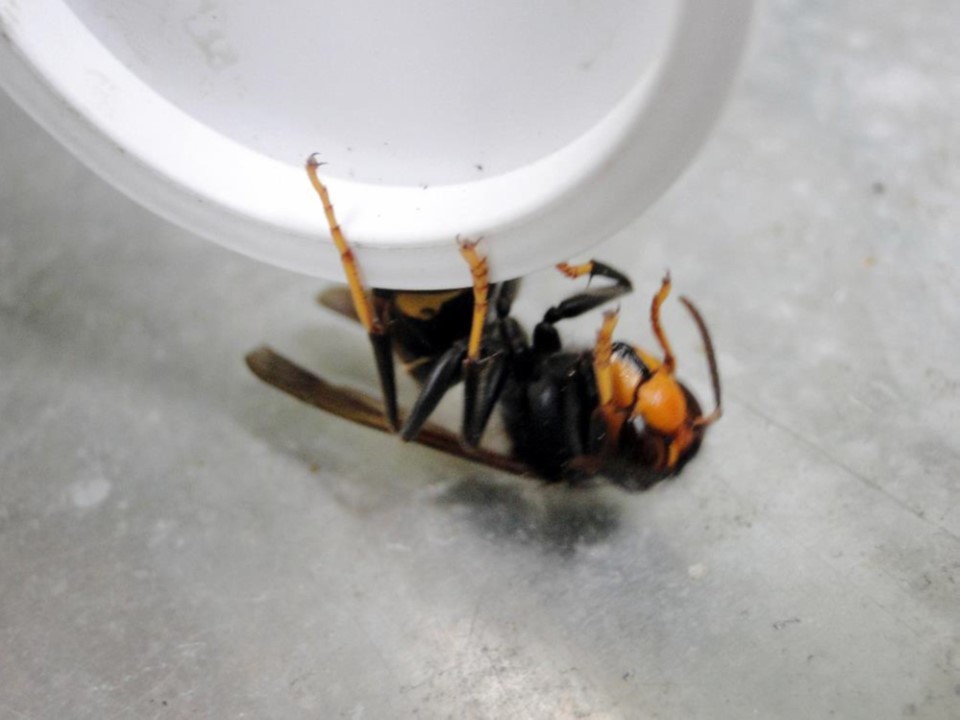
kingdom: Animalia
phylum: Arthropoda
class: Insecta
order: Hymenoptera
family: Vespidae
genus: Vespa
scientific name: Vespa velutina
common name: Asian hornet
